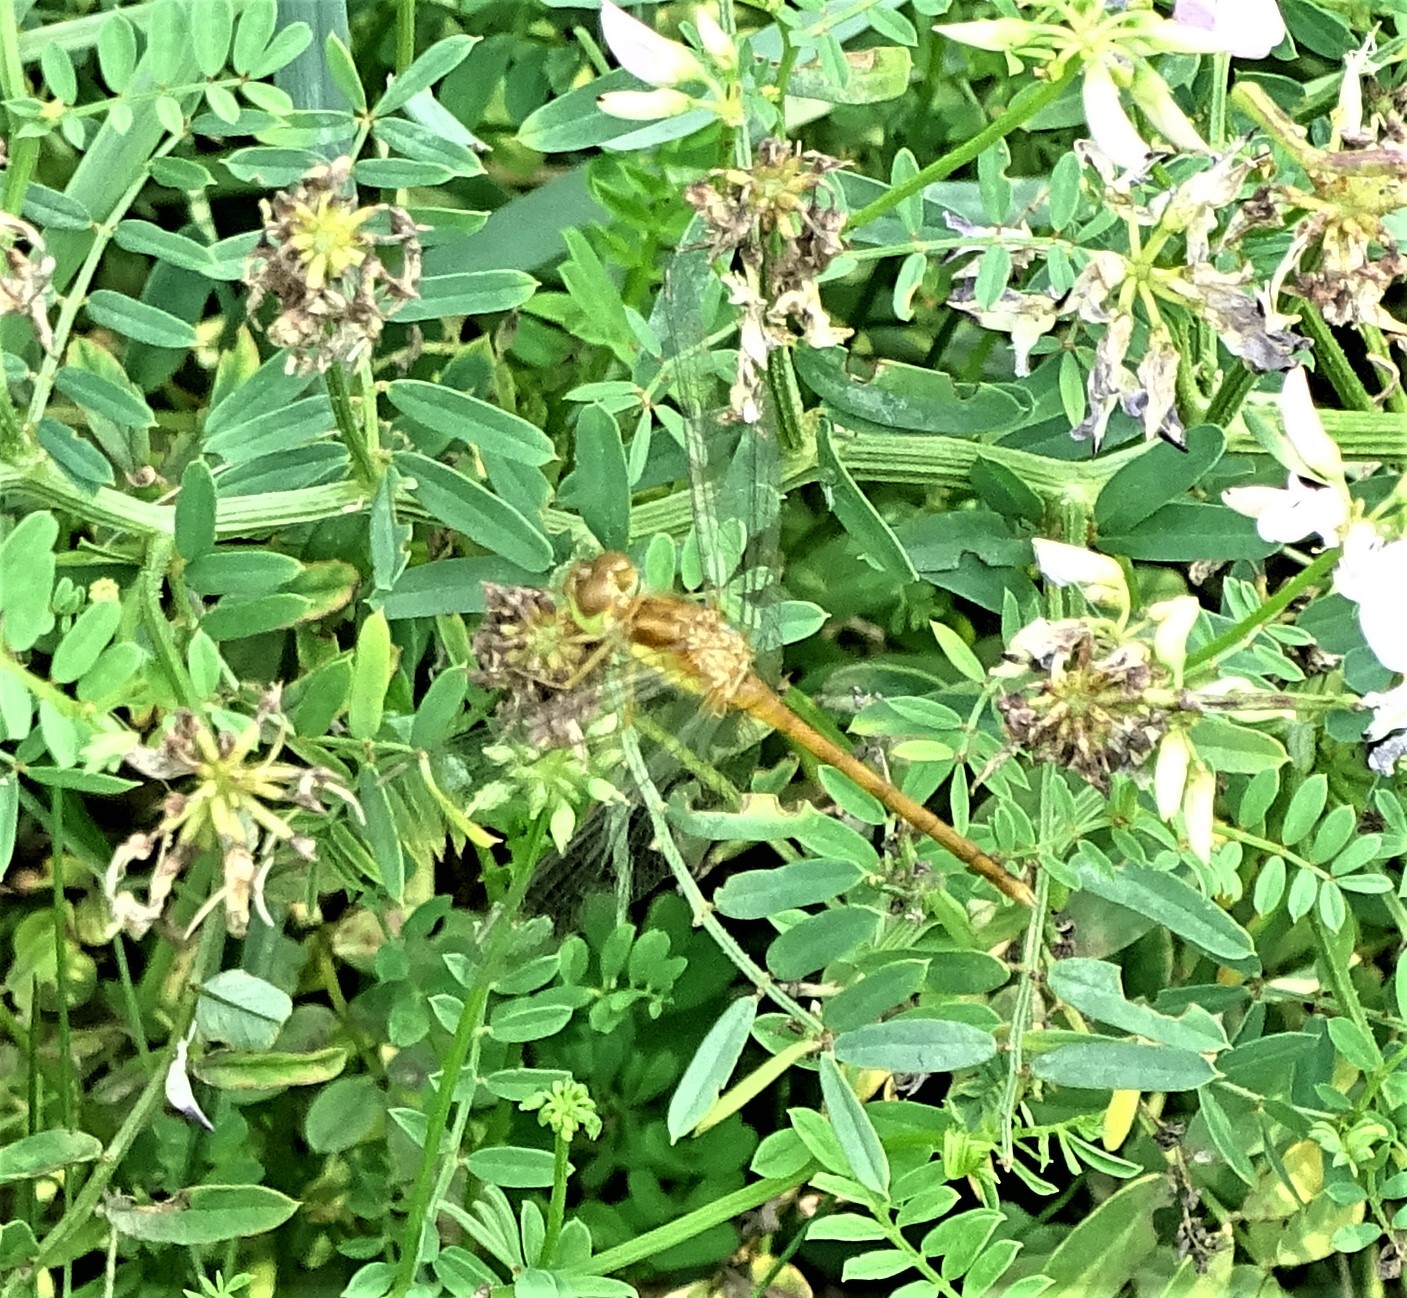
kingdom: Animalia
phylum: Arthropoda
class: Insecta
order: Odonata
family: Libellulidae
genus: Sympetrum
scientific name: Sympetrum vicinum
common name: Autumn meadowhawk
